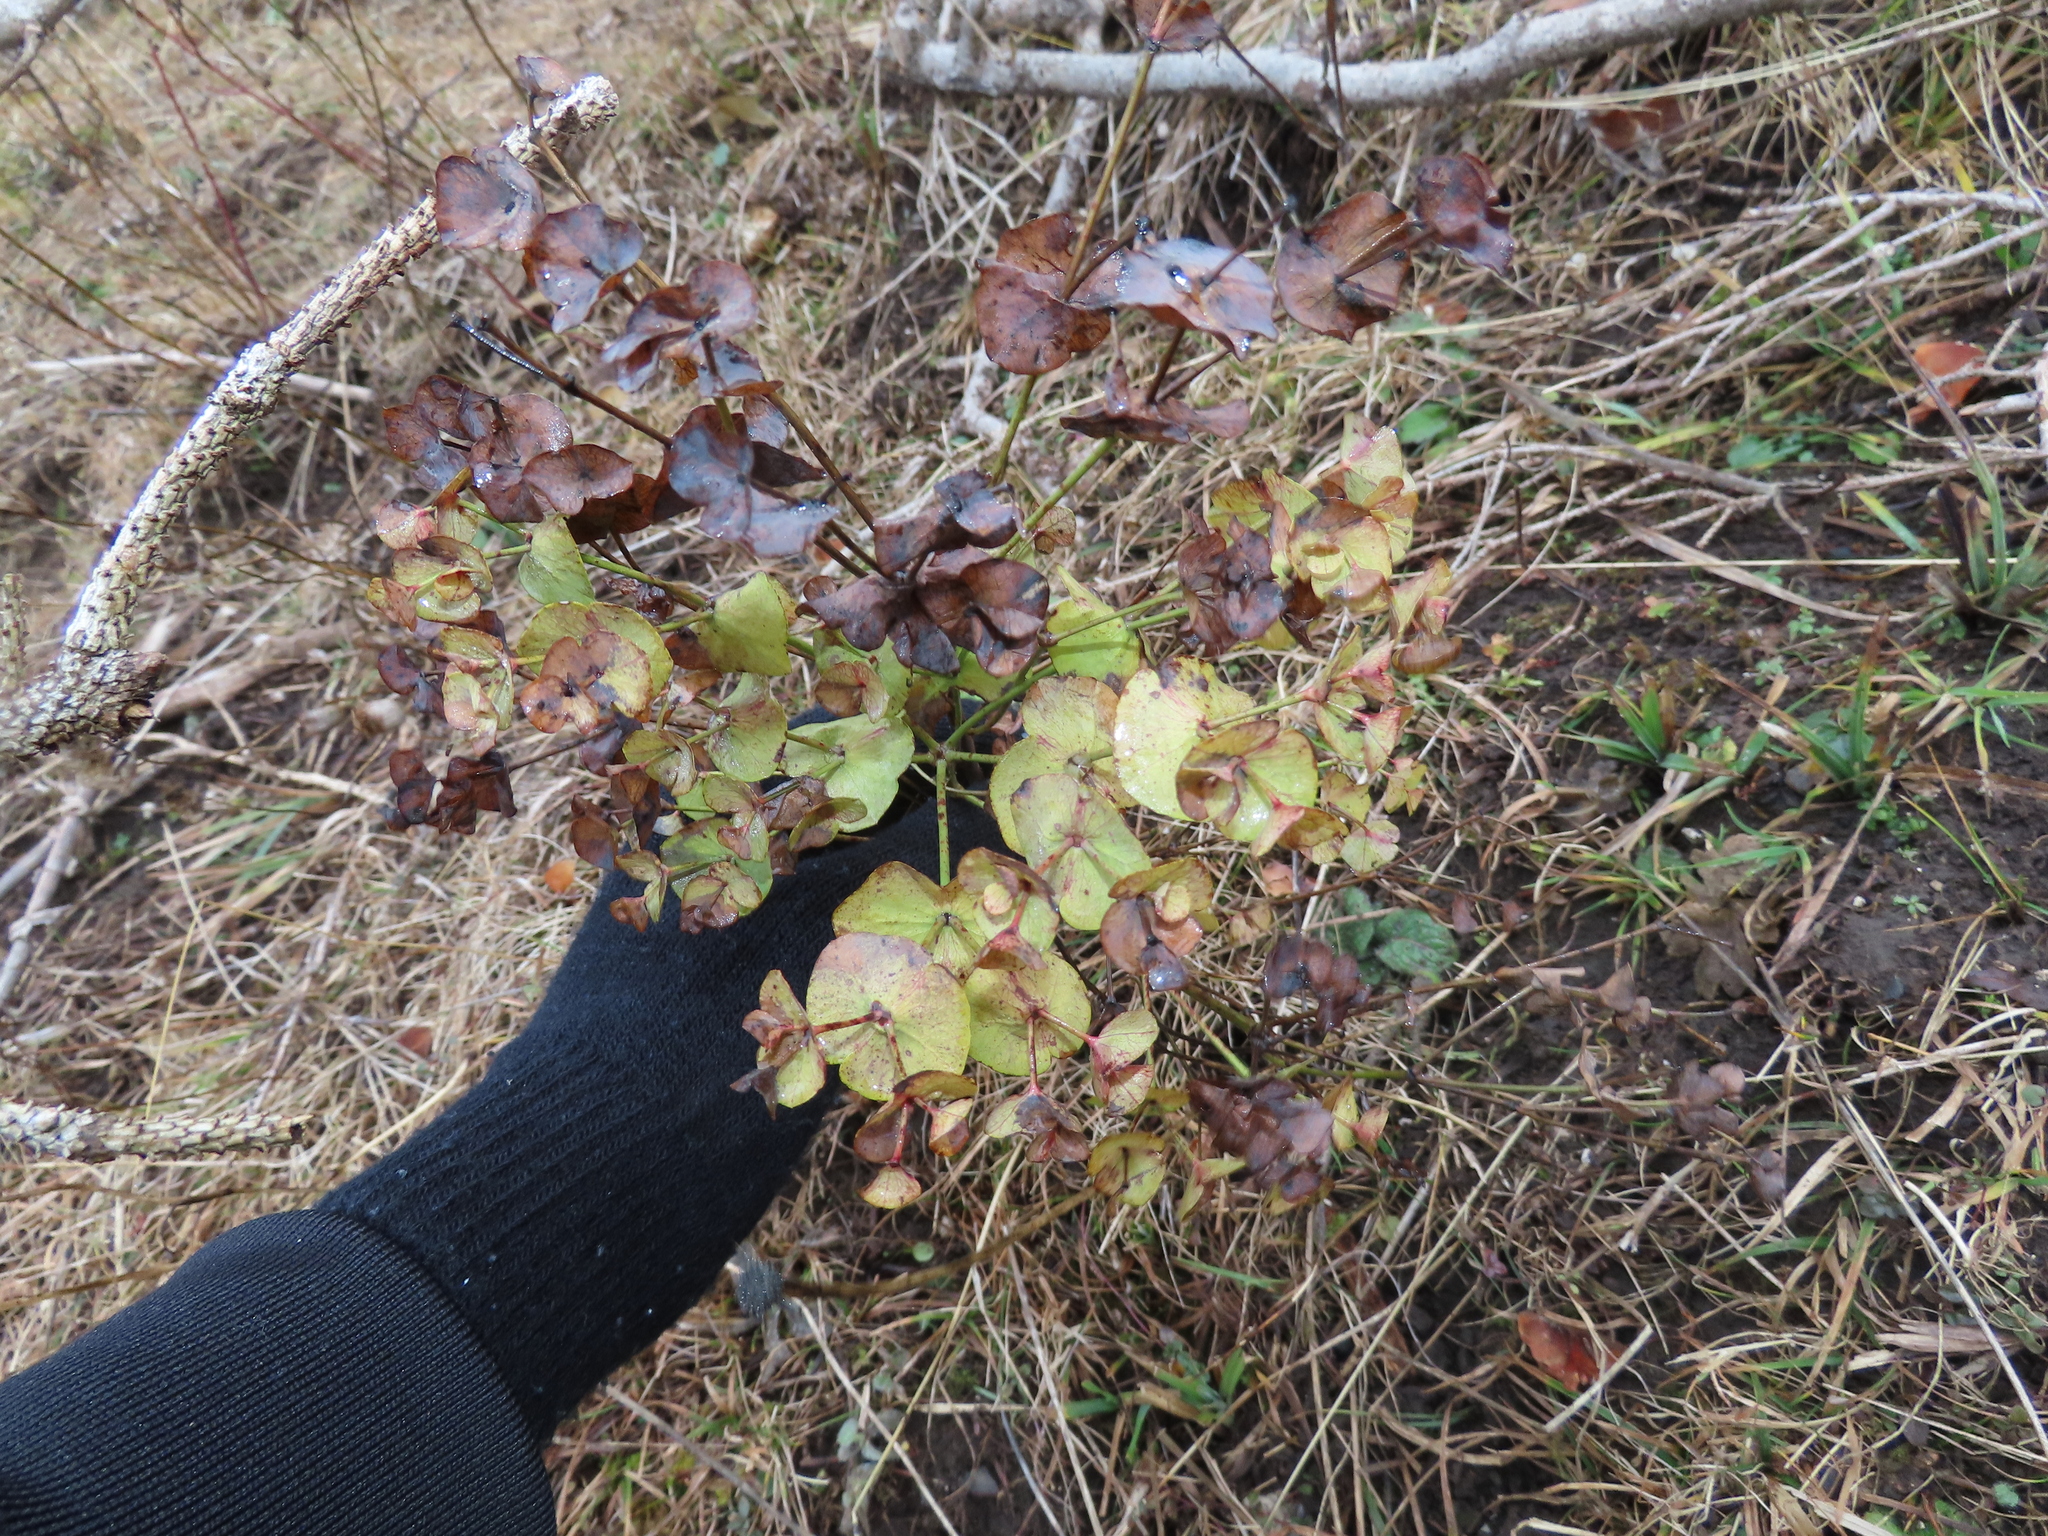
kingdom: Plantae
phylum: Tracheophyta
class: Magnoliopsida
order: Malpighiales
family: Euphorbiaceae
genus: Euphorbia
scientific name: Euphorbia amygdaloides
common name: Wood spurge
